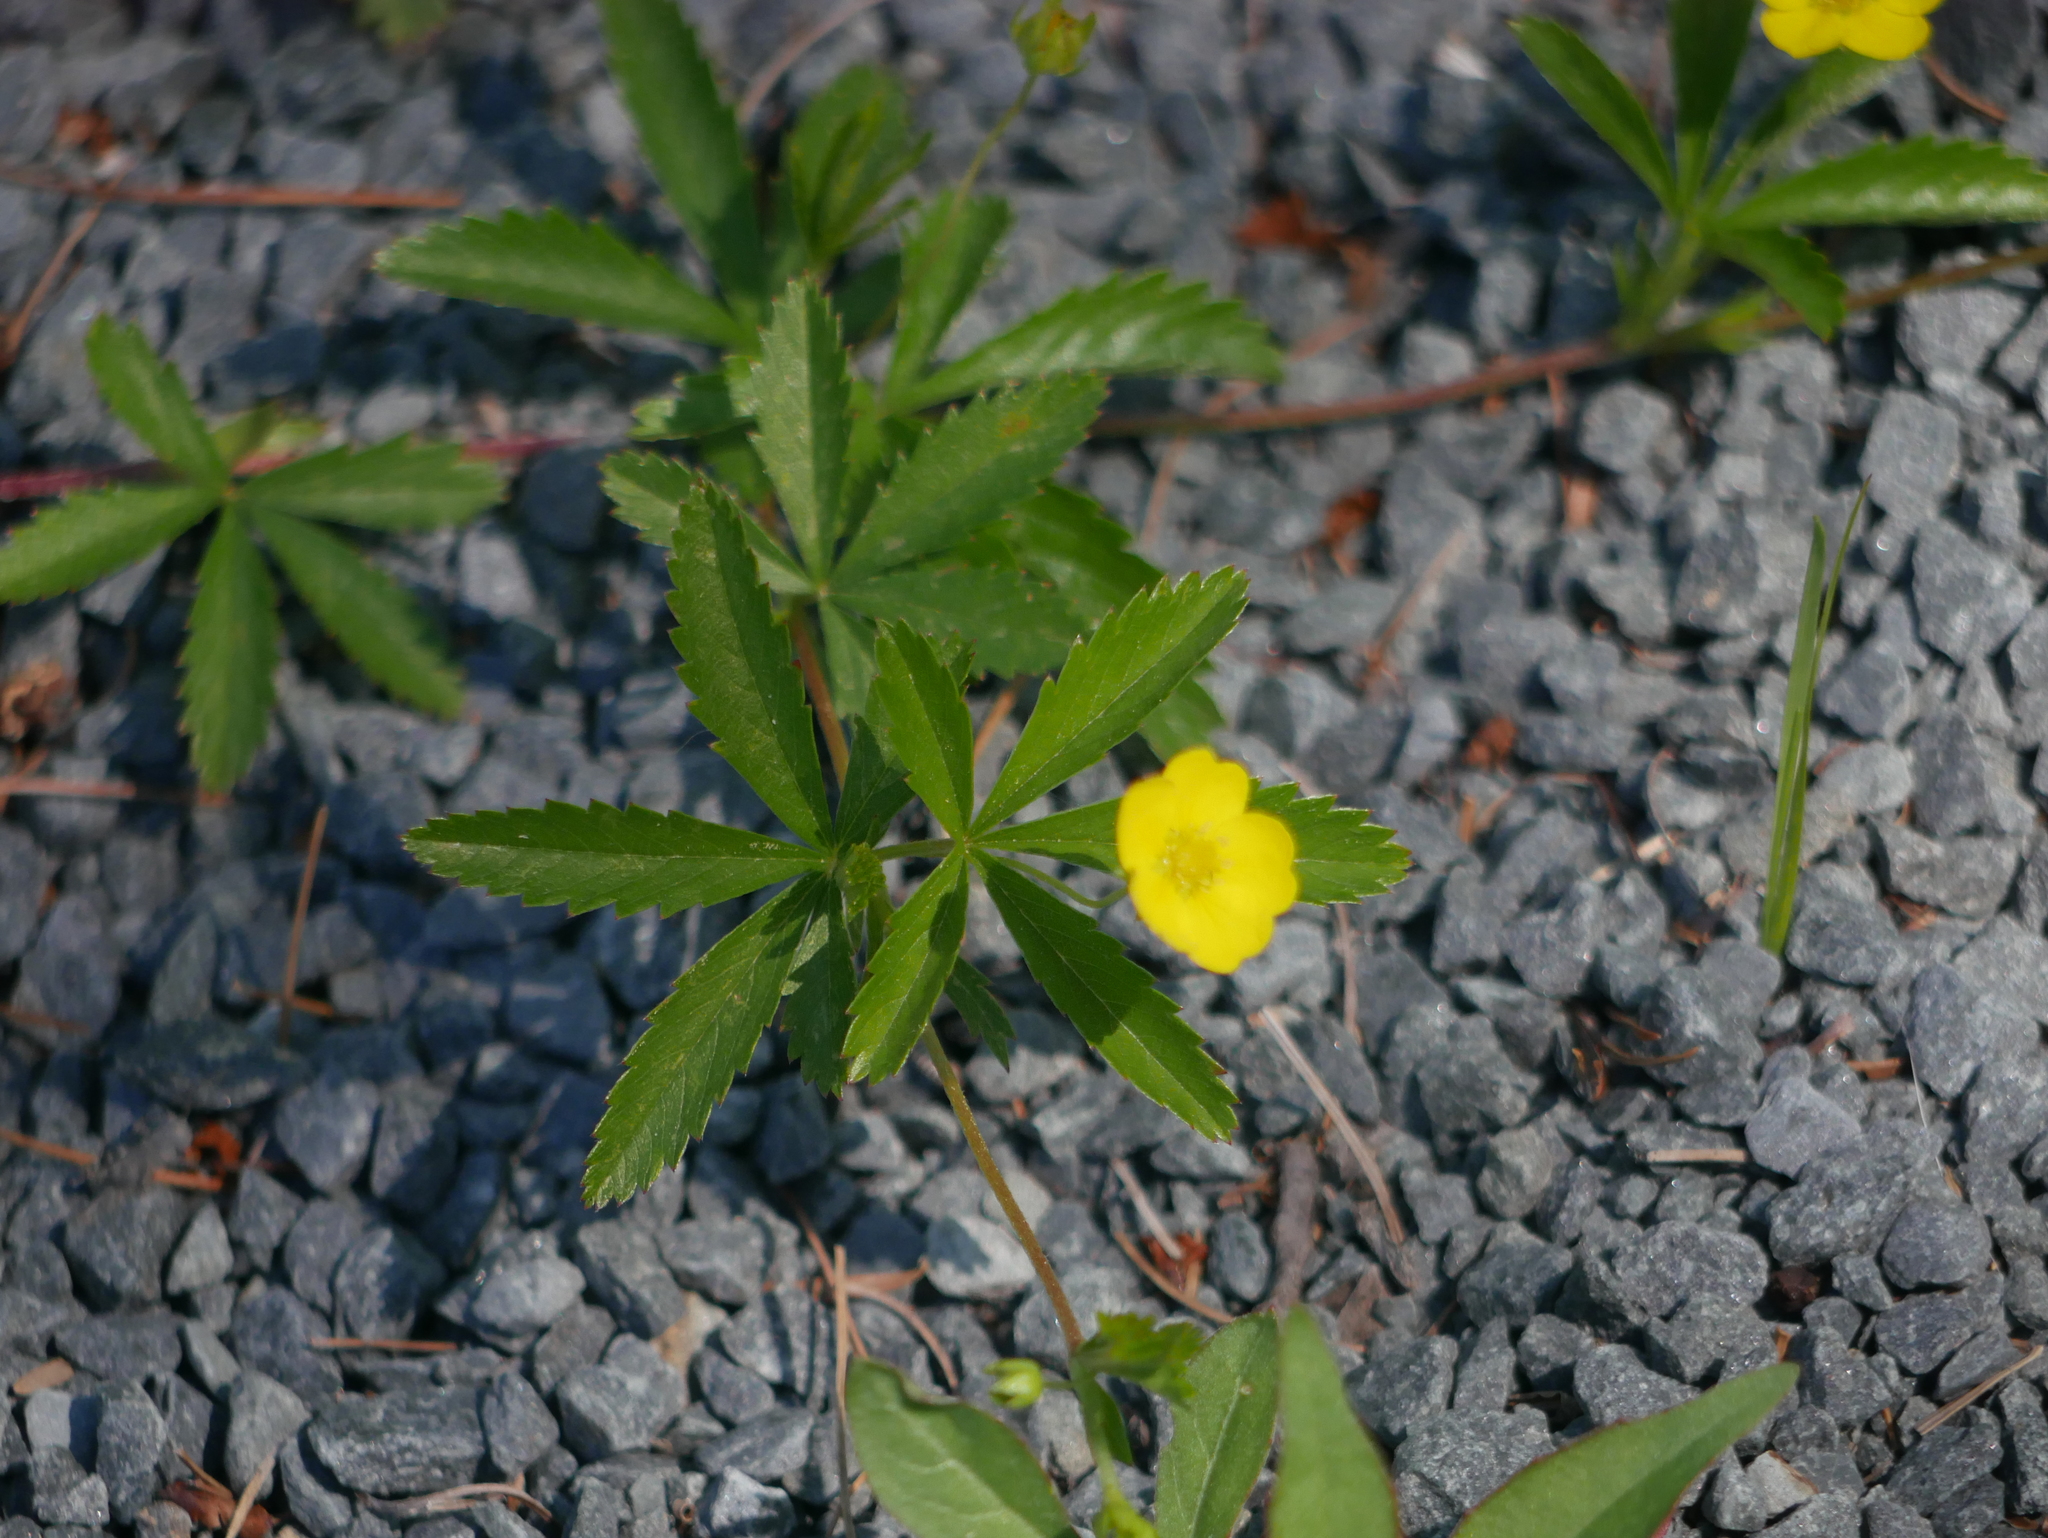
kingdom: Plantae
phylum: Tracheophyta
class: Magnoliopsida
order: Rosales
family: Rosaceae
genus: Potentilla
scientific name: Potentilla simplex
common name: Old field cinquefoil
